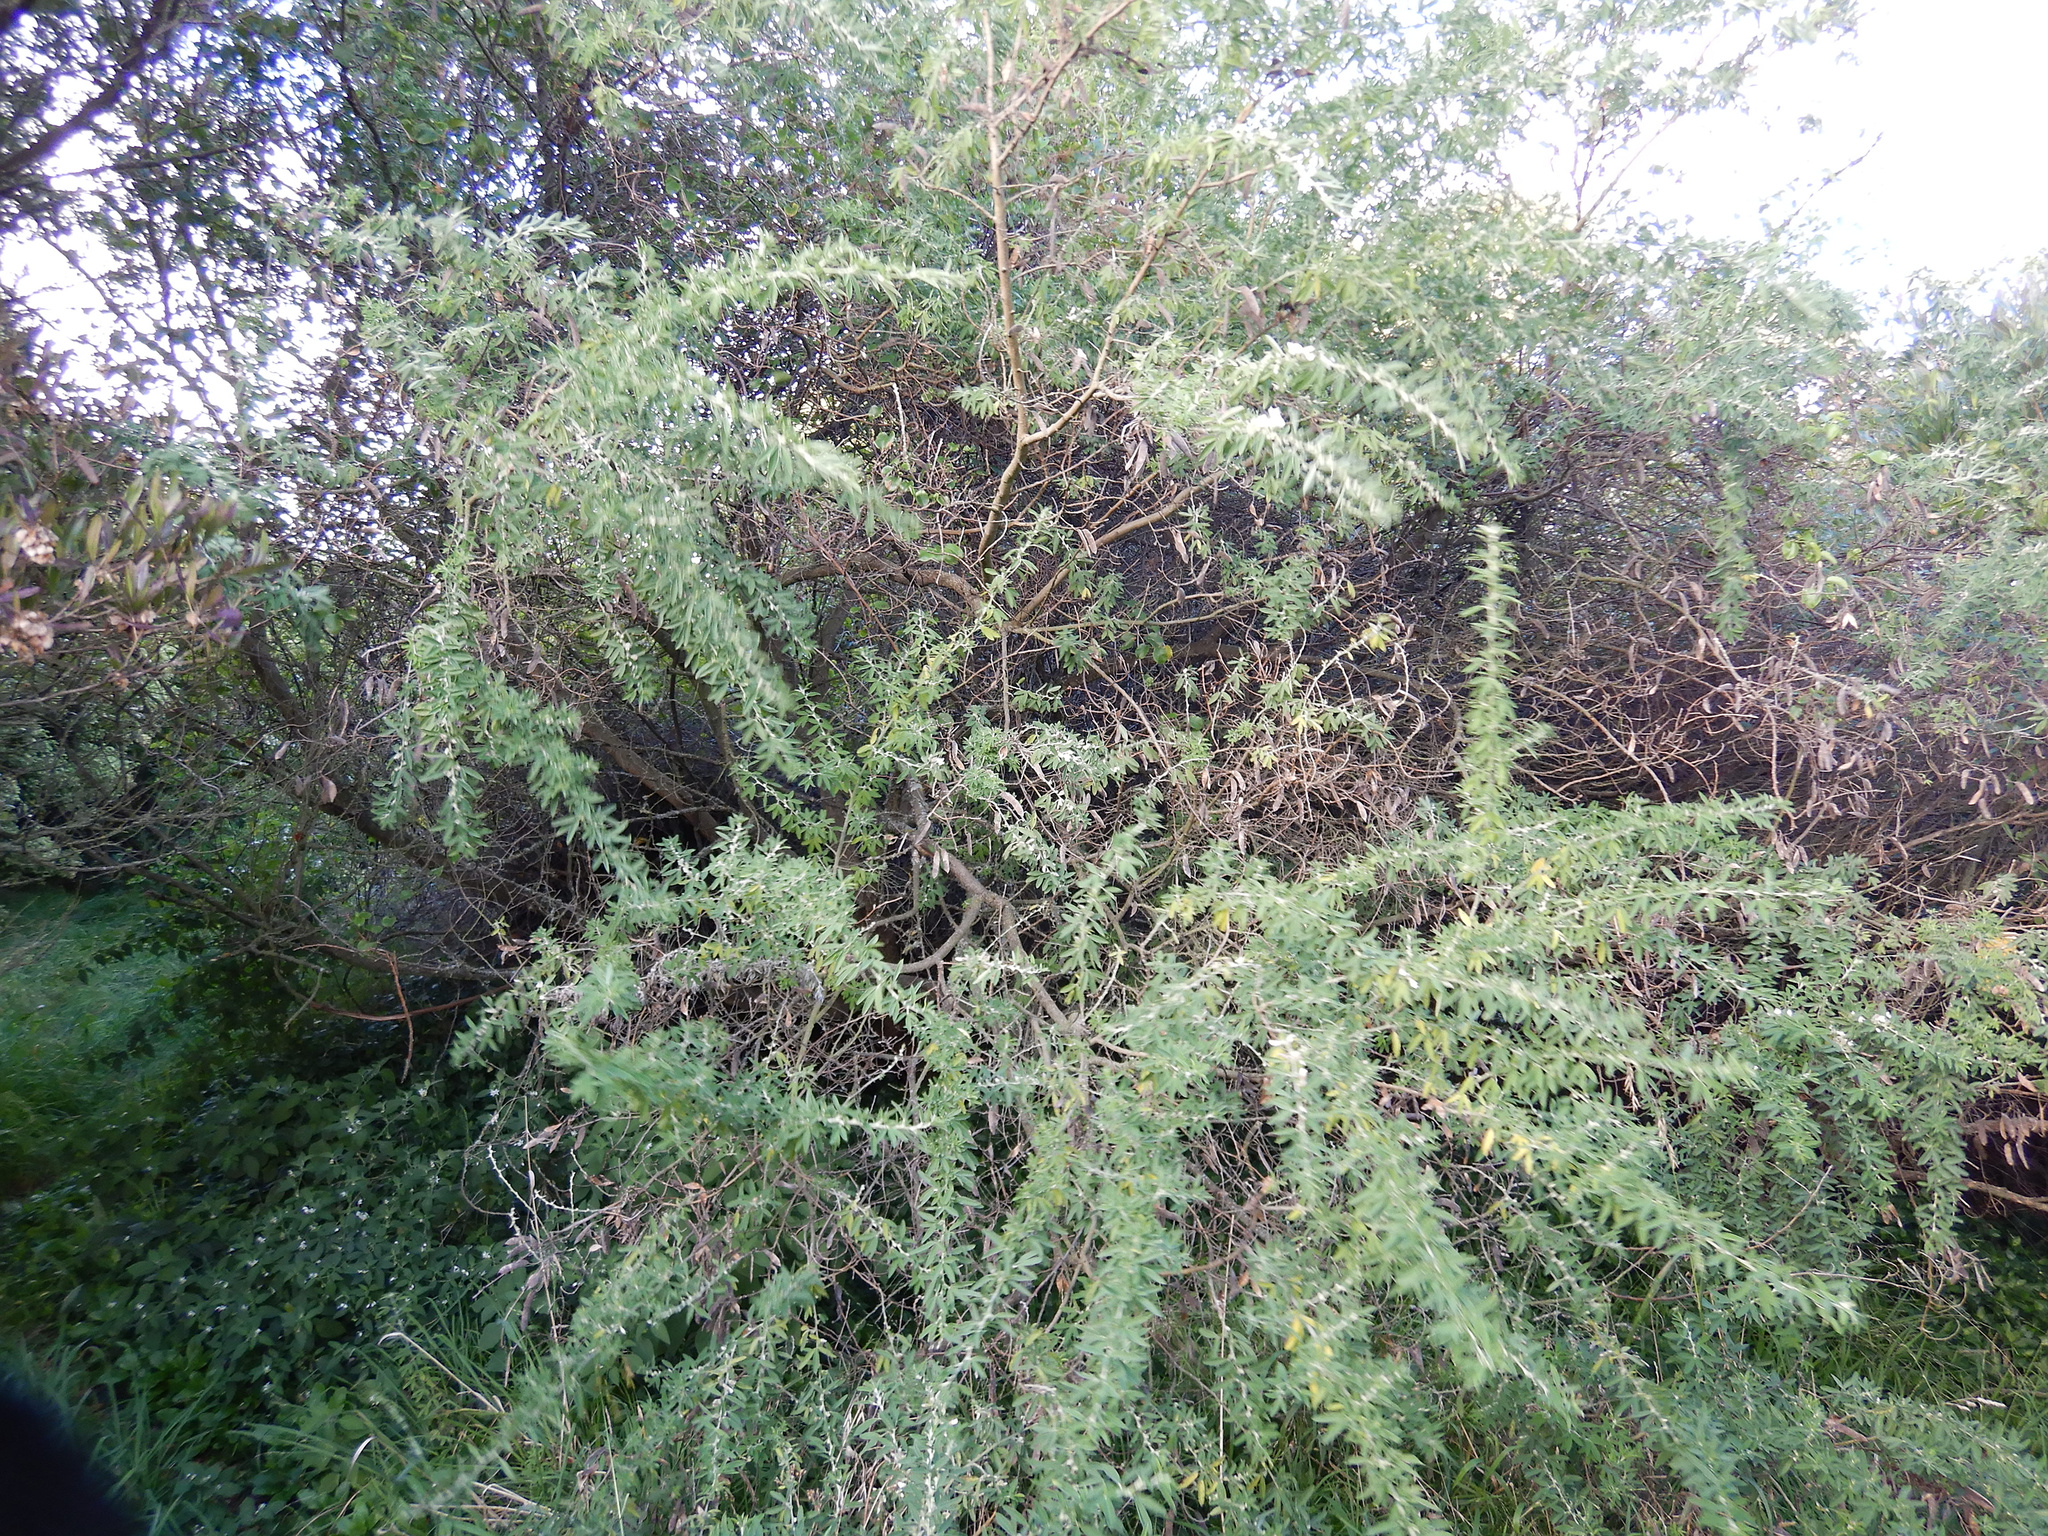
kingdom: Plantae
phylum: Tracheophyta
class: Magnoliopsida
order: Fabales
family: Fabaceae
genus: Chamaecytisus
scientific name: Chamaecytisus prolifer
